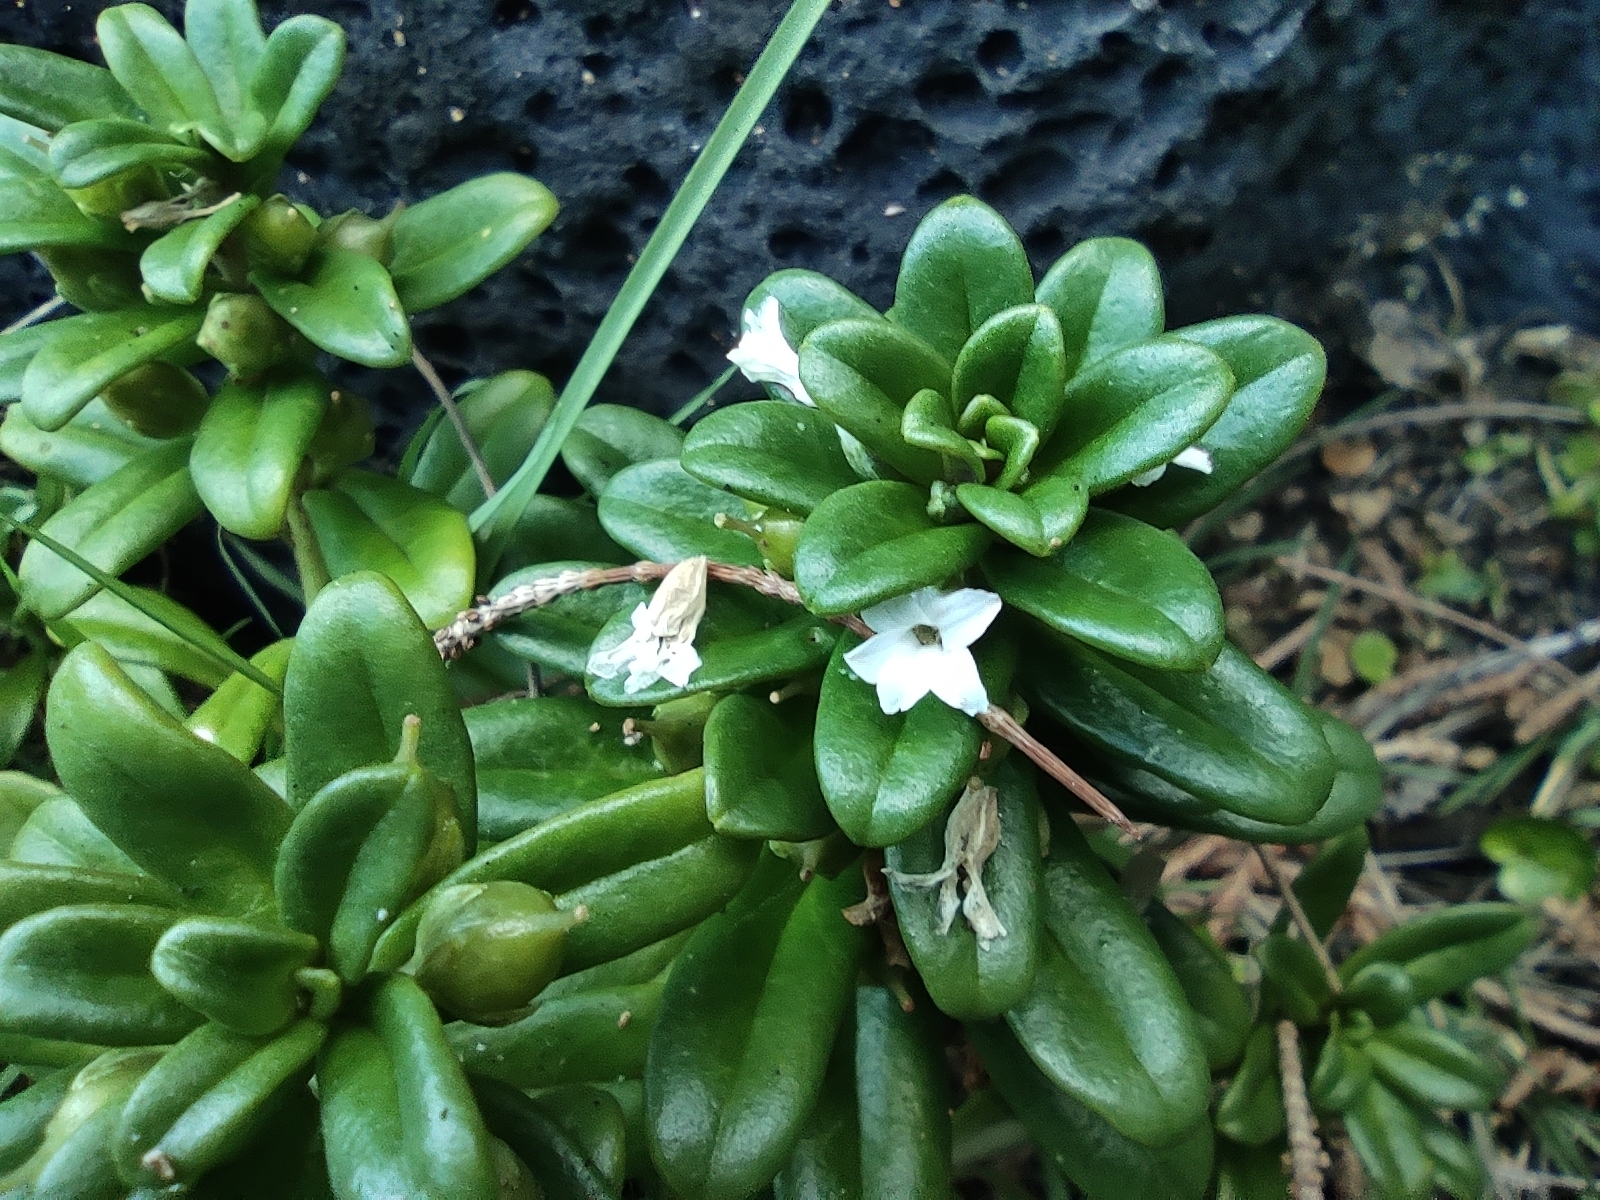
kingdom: Plantae
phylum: Tracheophyta
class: Magnoliopsida
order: Ericales
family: Primulaceae
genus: Lysimachia
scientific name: Lysimachia mauritiana
